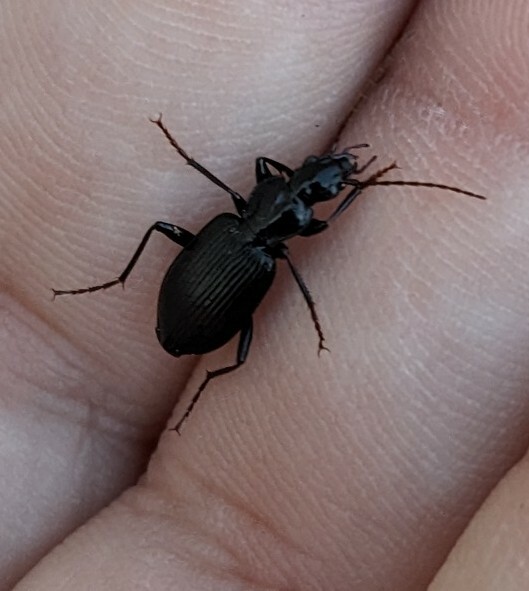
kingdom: Animalia
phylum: Arthropoda
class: Insecta
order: Coleoptera
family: Carabidae
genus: Platynus
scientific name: Platynus decentis
